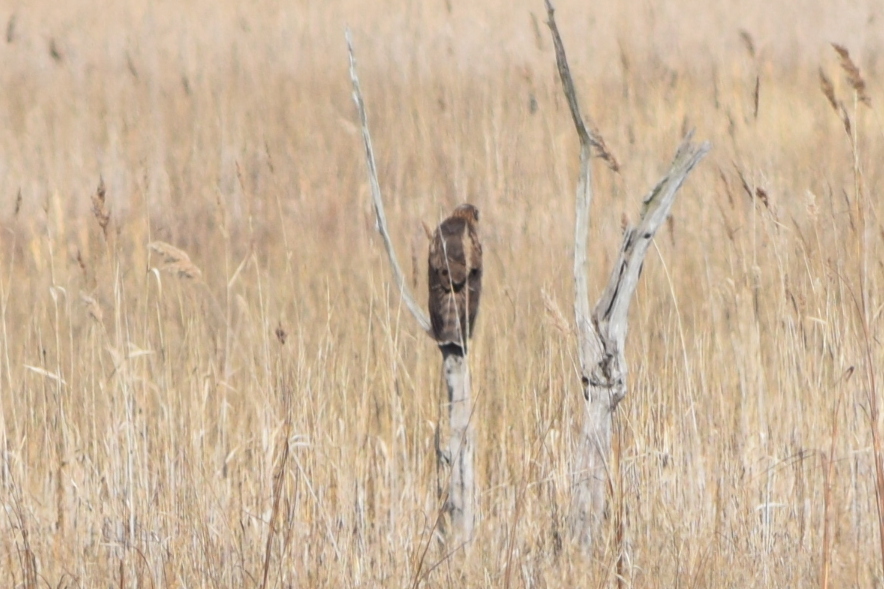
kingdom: Animalia
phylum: Chordata
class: Aves
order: Accipitriformes
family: Accipitridae
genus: Circus
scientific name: Circus cyaneus
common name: Hen harrier
